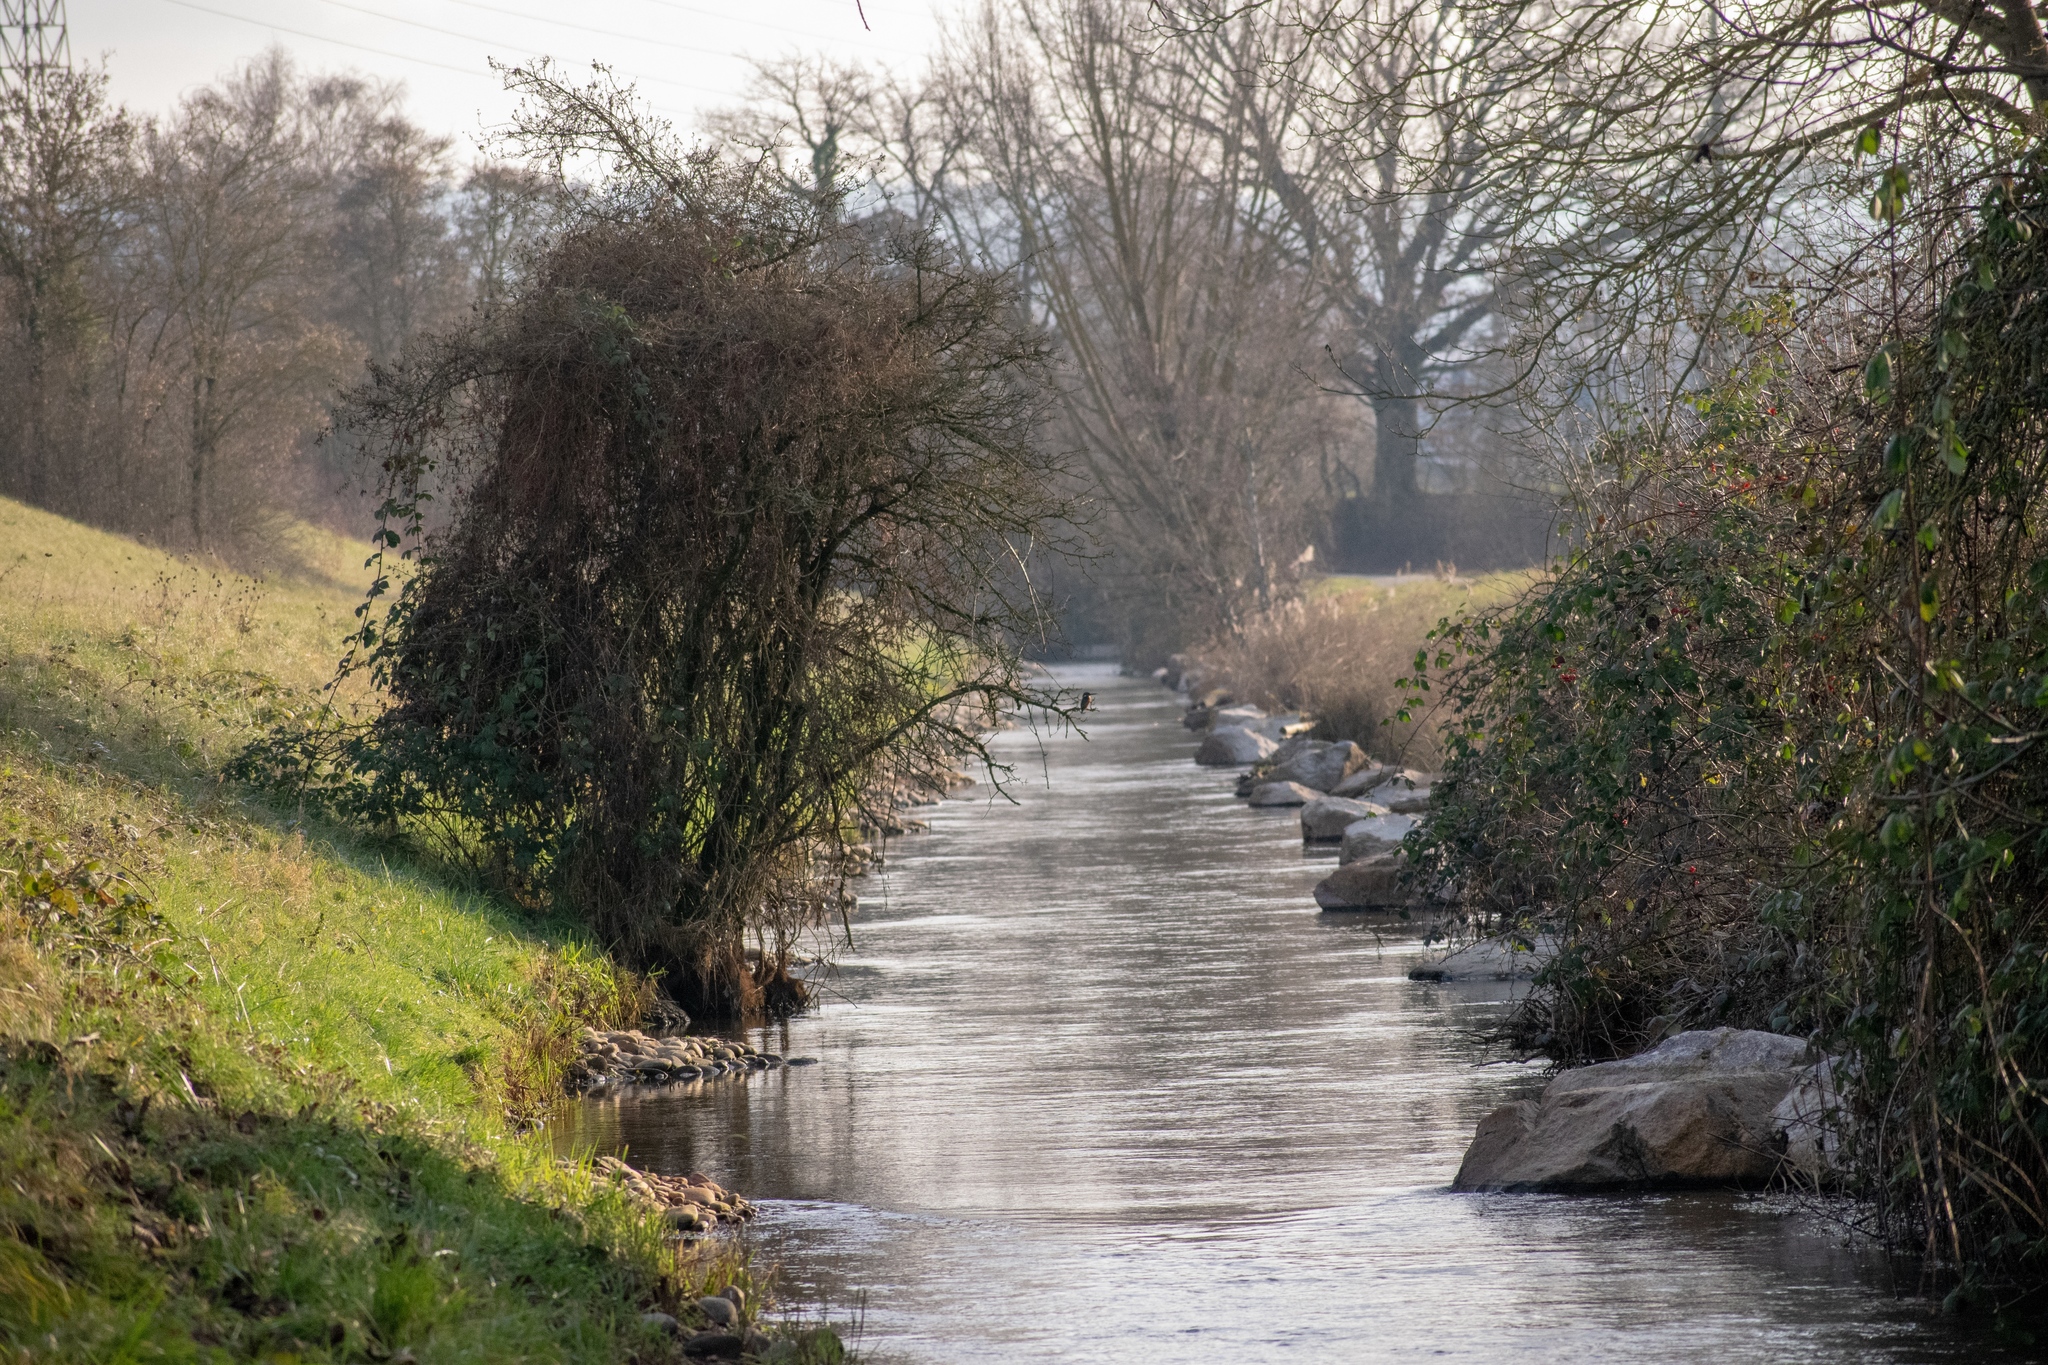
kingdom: Animalia
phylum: Chordata
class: Aves
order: Coraciiformes
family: Alcedinidae
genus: Alcedo
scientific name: Alcedo atthis
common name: Common kingfisher
